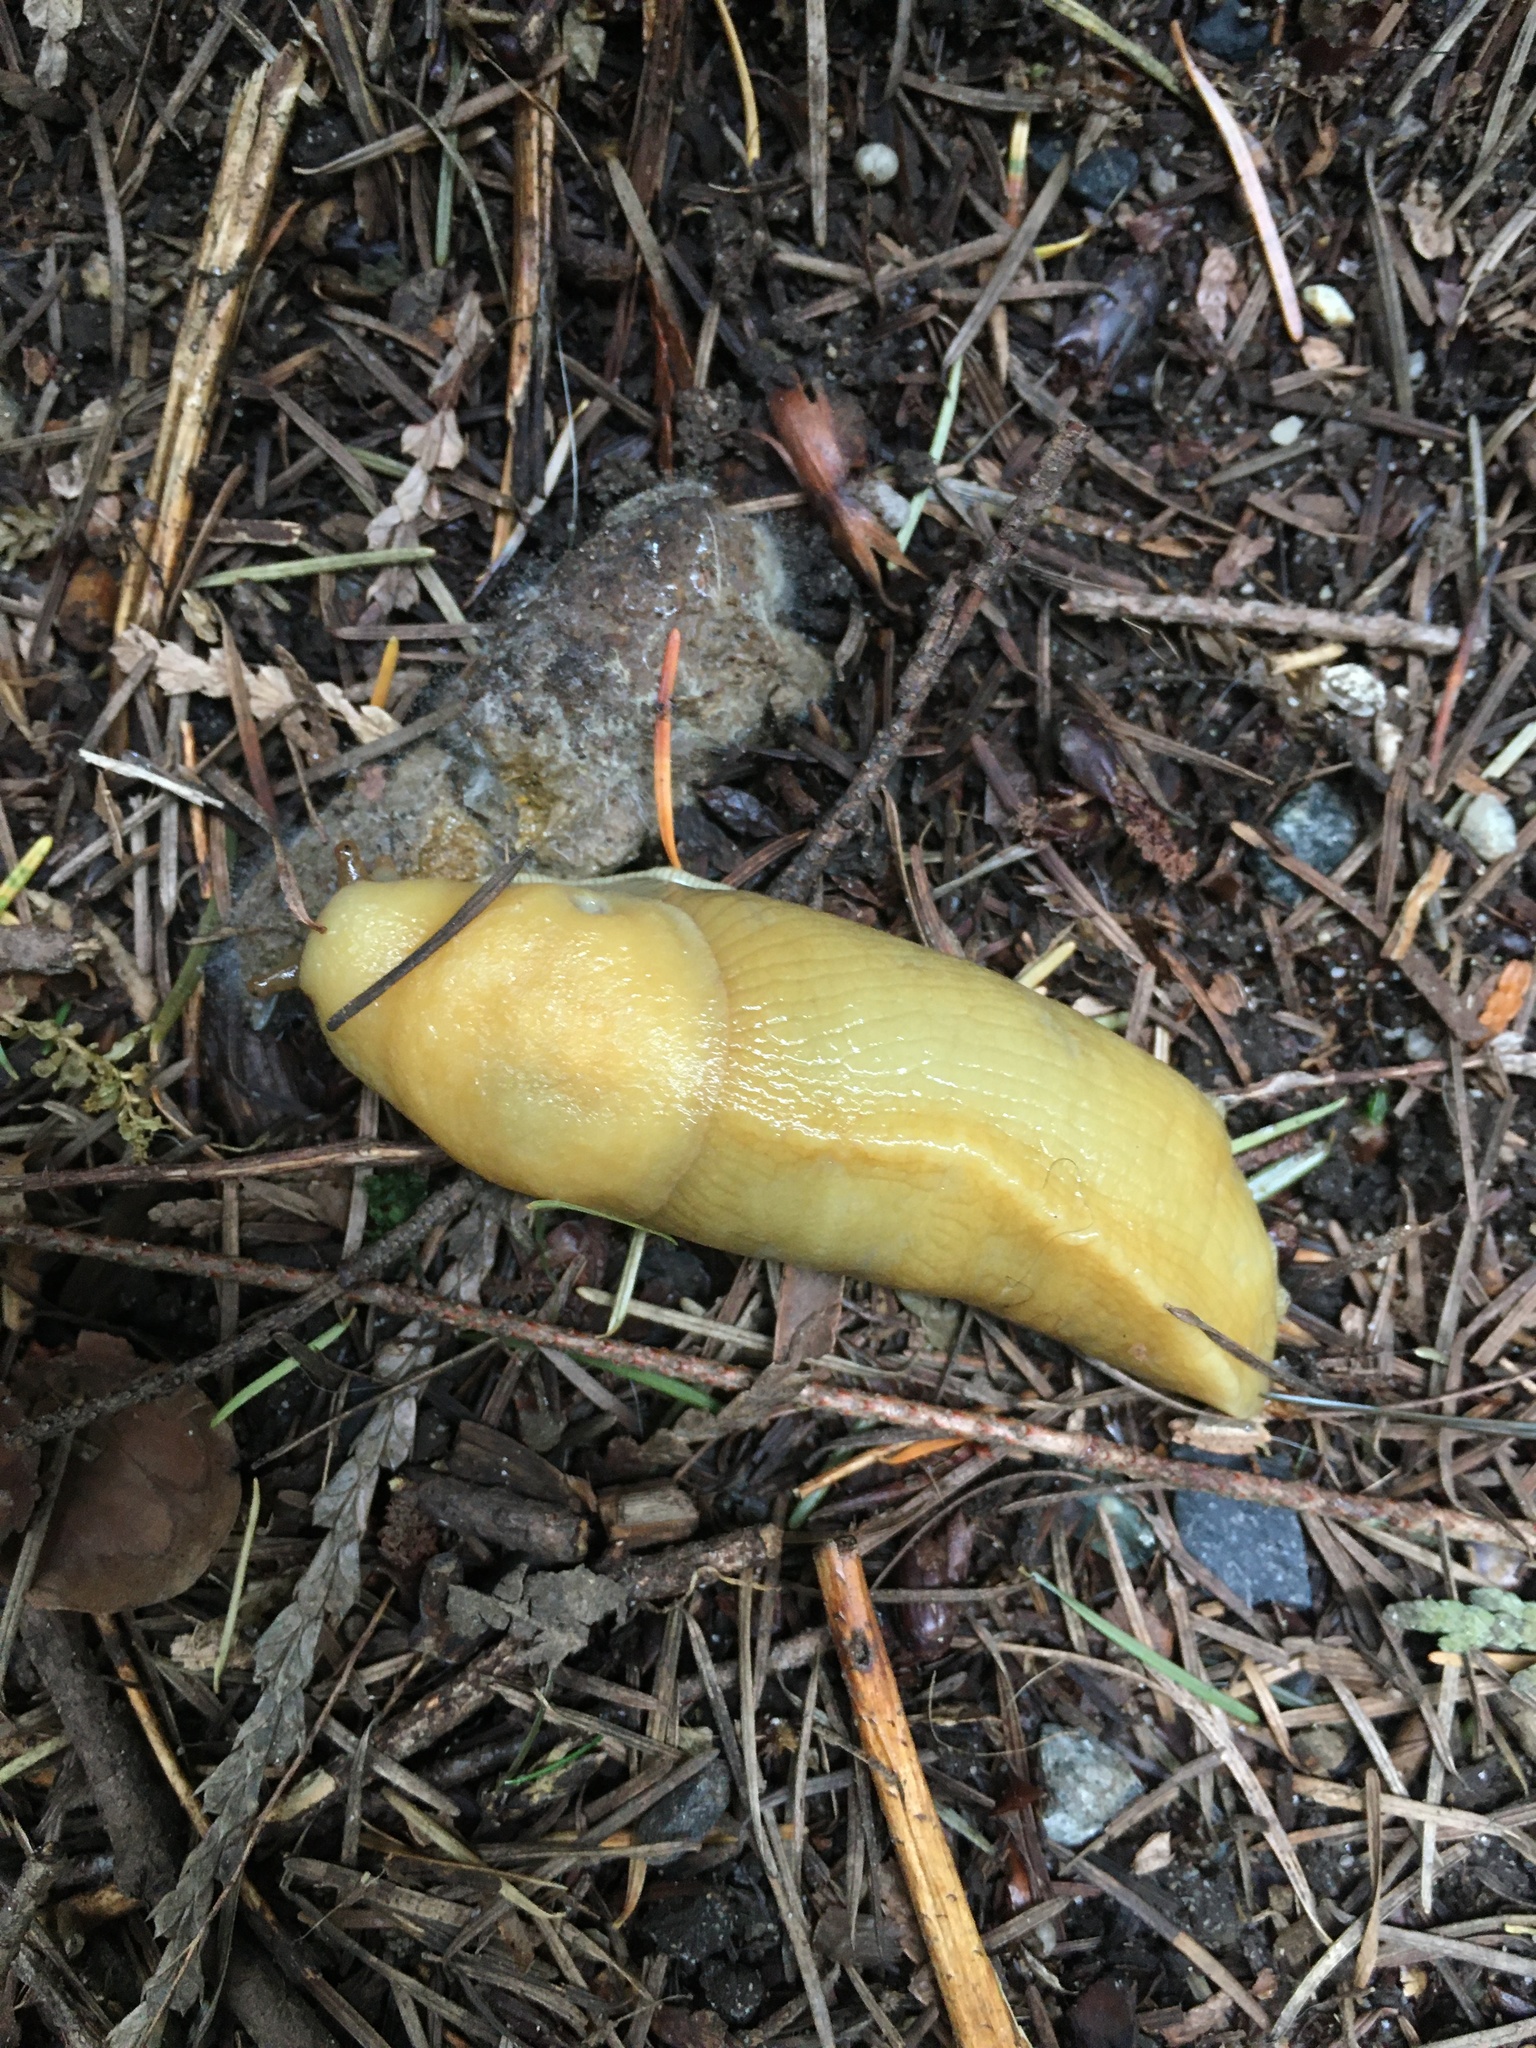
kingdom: Animalia
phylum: Mollusca
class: Gastropoda
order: Stylommatophora
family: Ariolimacidae
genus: Ariolimax
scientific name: Ariolimax columbianus
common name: Pacific banana slug
